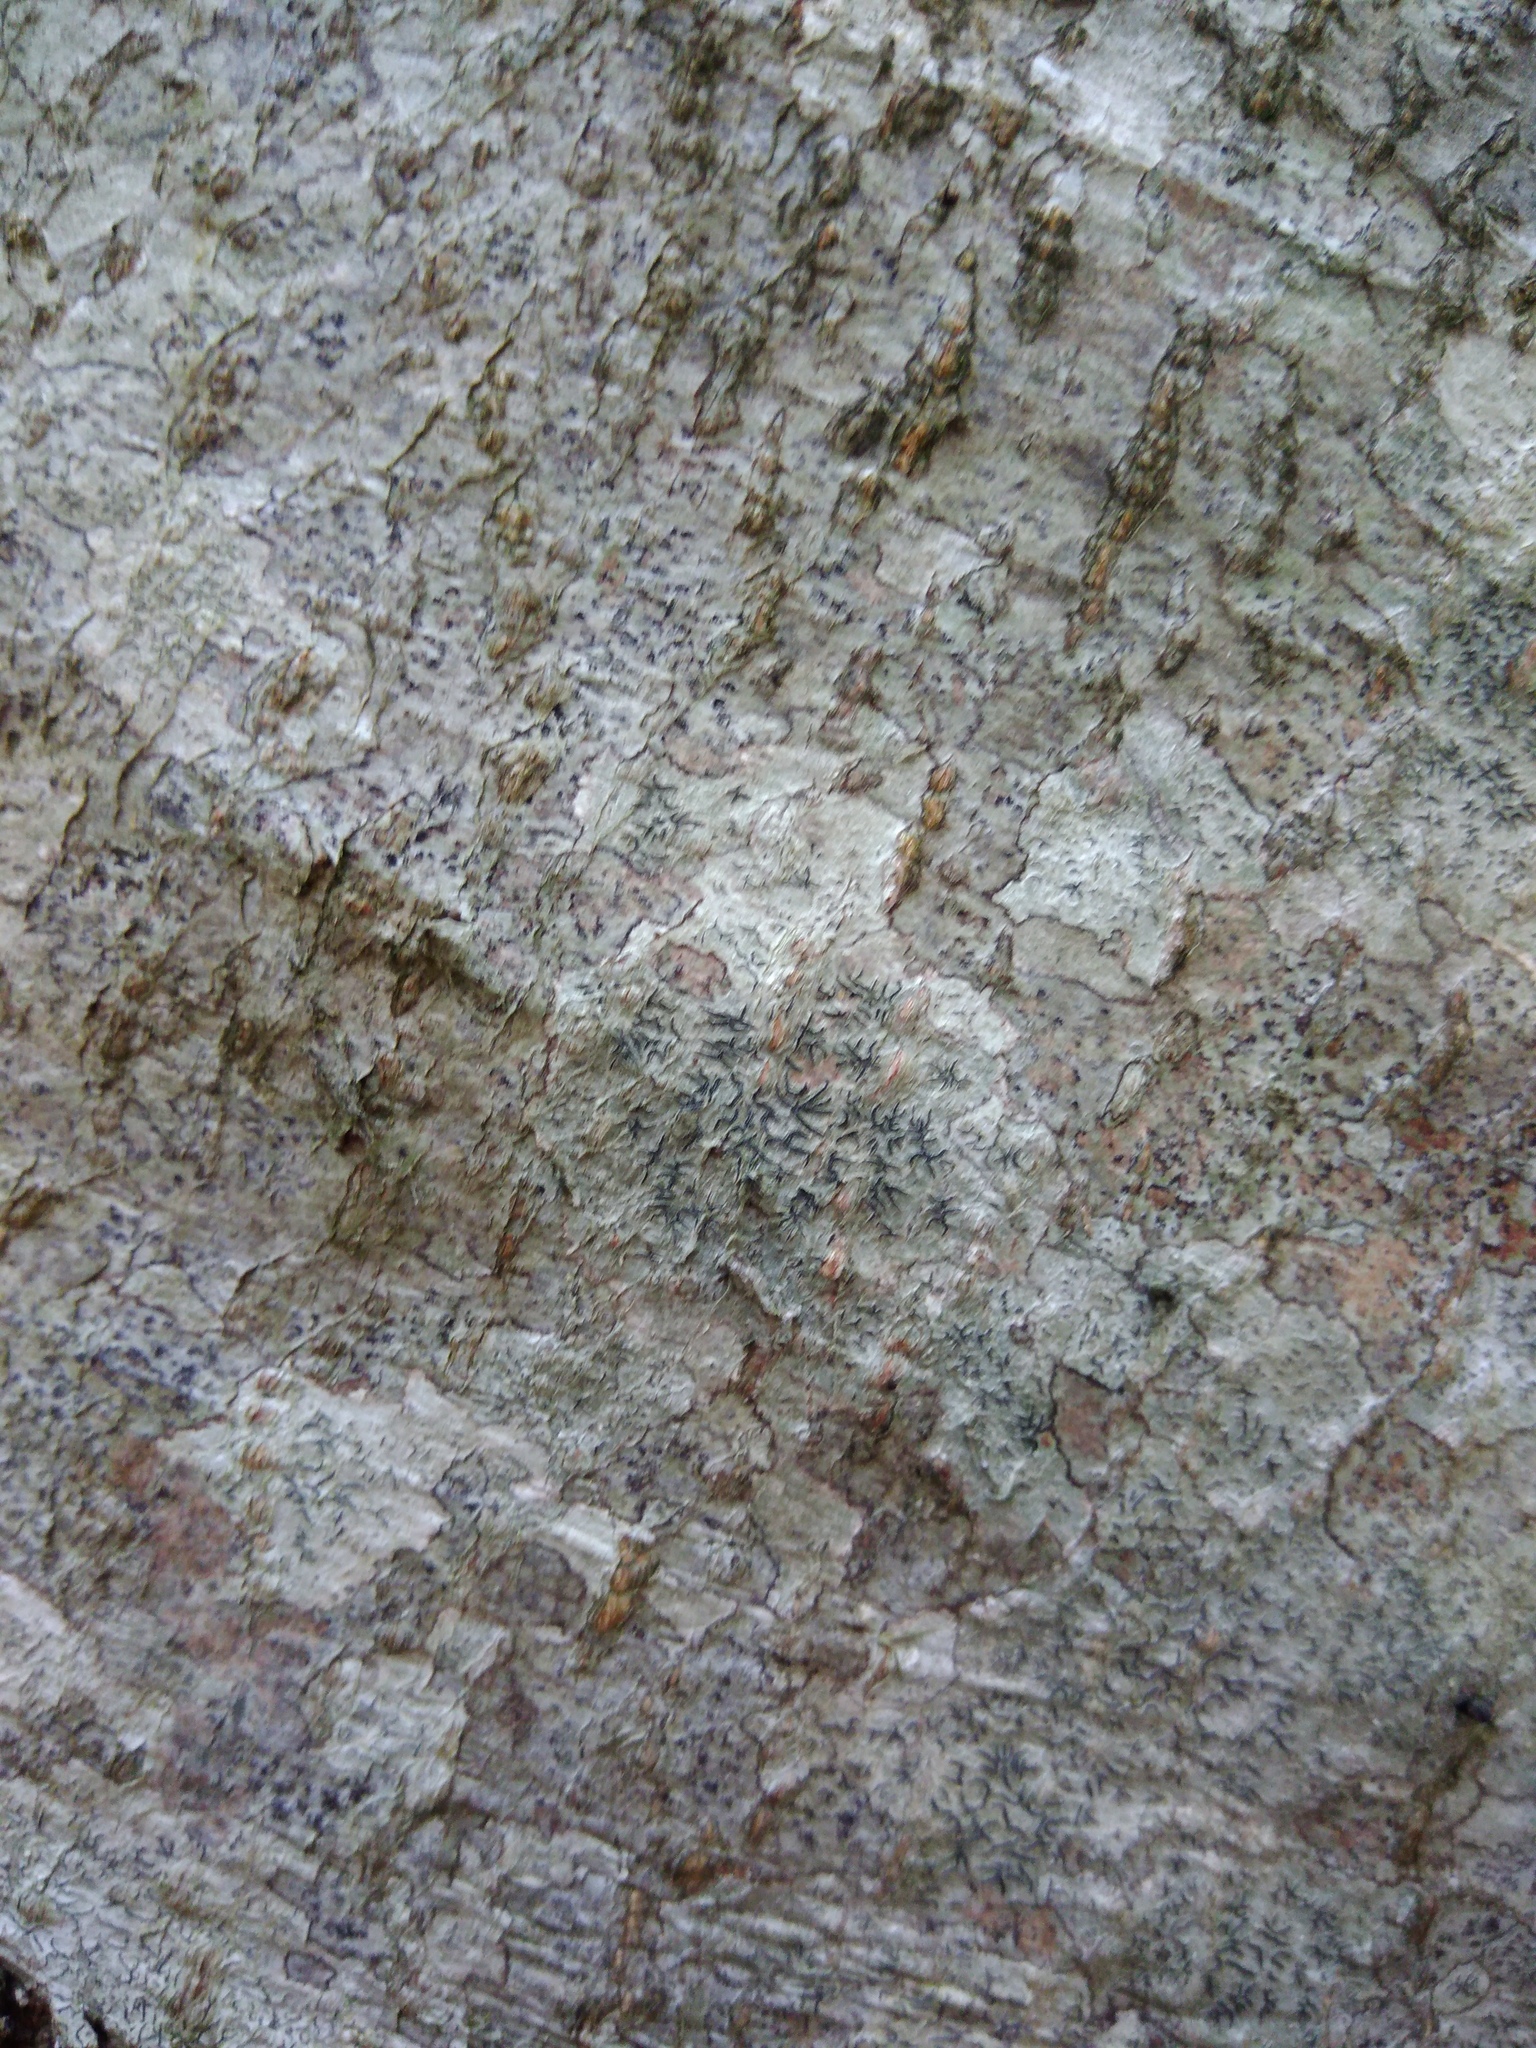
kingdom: Fungi
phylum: Ascomycota
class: Lecanoromycetes
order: Ostropales
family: Graphidaceae
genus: Graphis
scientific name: Graphis scripta
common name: Script lichen
